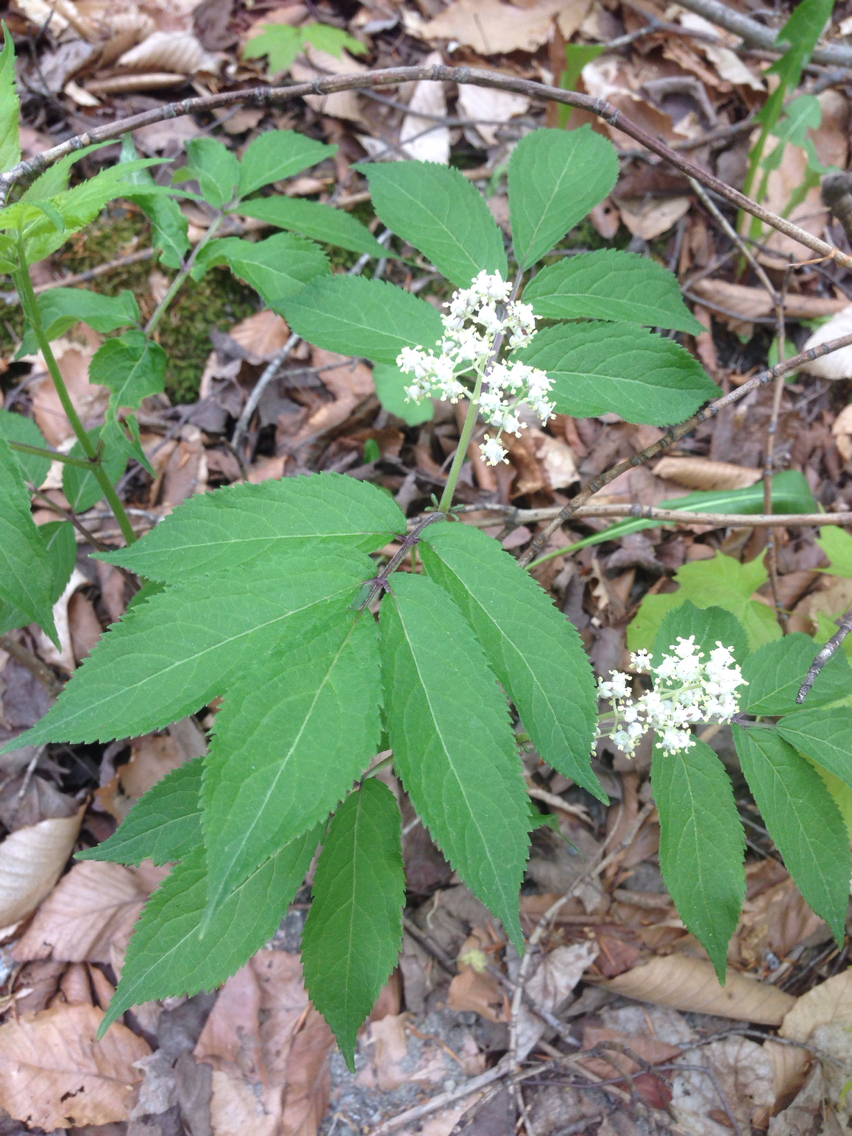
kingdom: Plantae
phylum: Tracheophyta
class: Magnoliopsida
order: Dipsacales
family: Viburnaceae
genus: Sambucus
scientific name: Sambucus racemosa
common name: Red-berried elder
